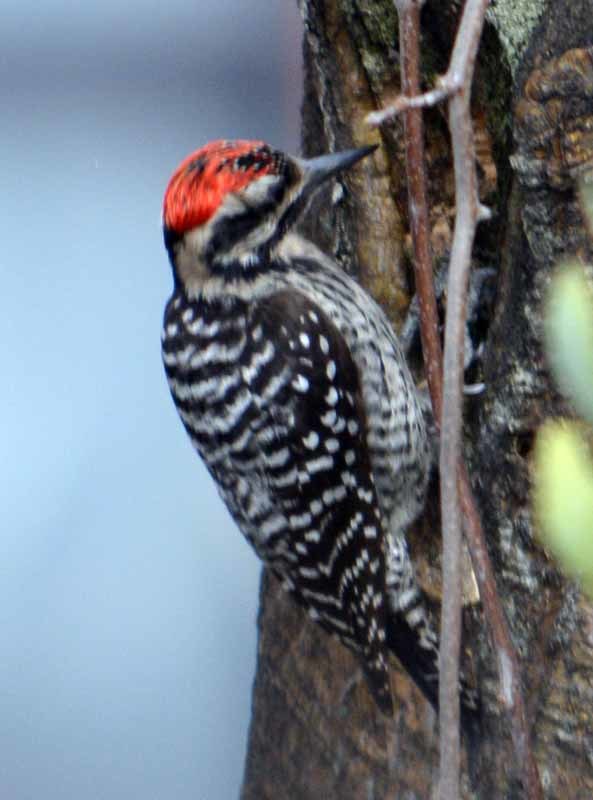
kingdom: Animalia
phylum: Chordata
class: Aves
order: Piciformes
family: Picidae
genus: Dryobates
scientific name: Dryobates scalaris
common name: Ladder-backed woodpecker
